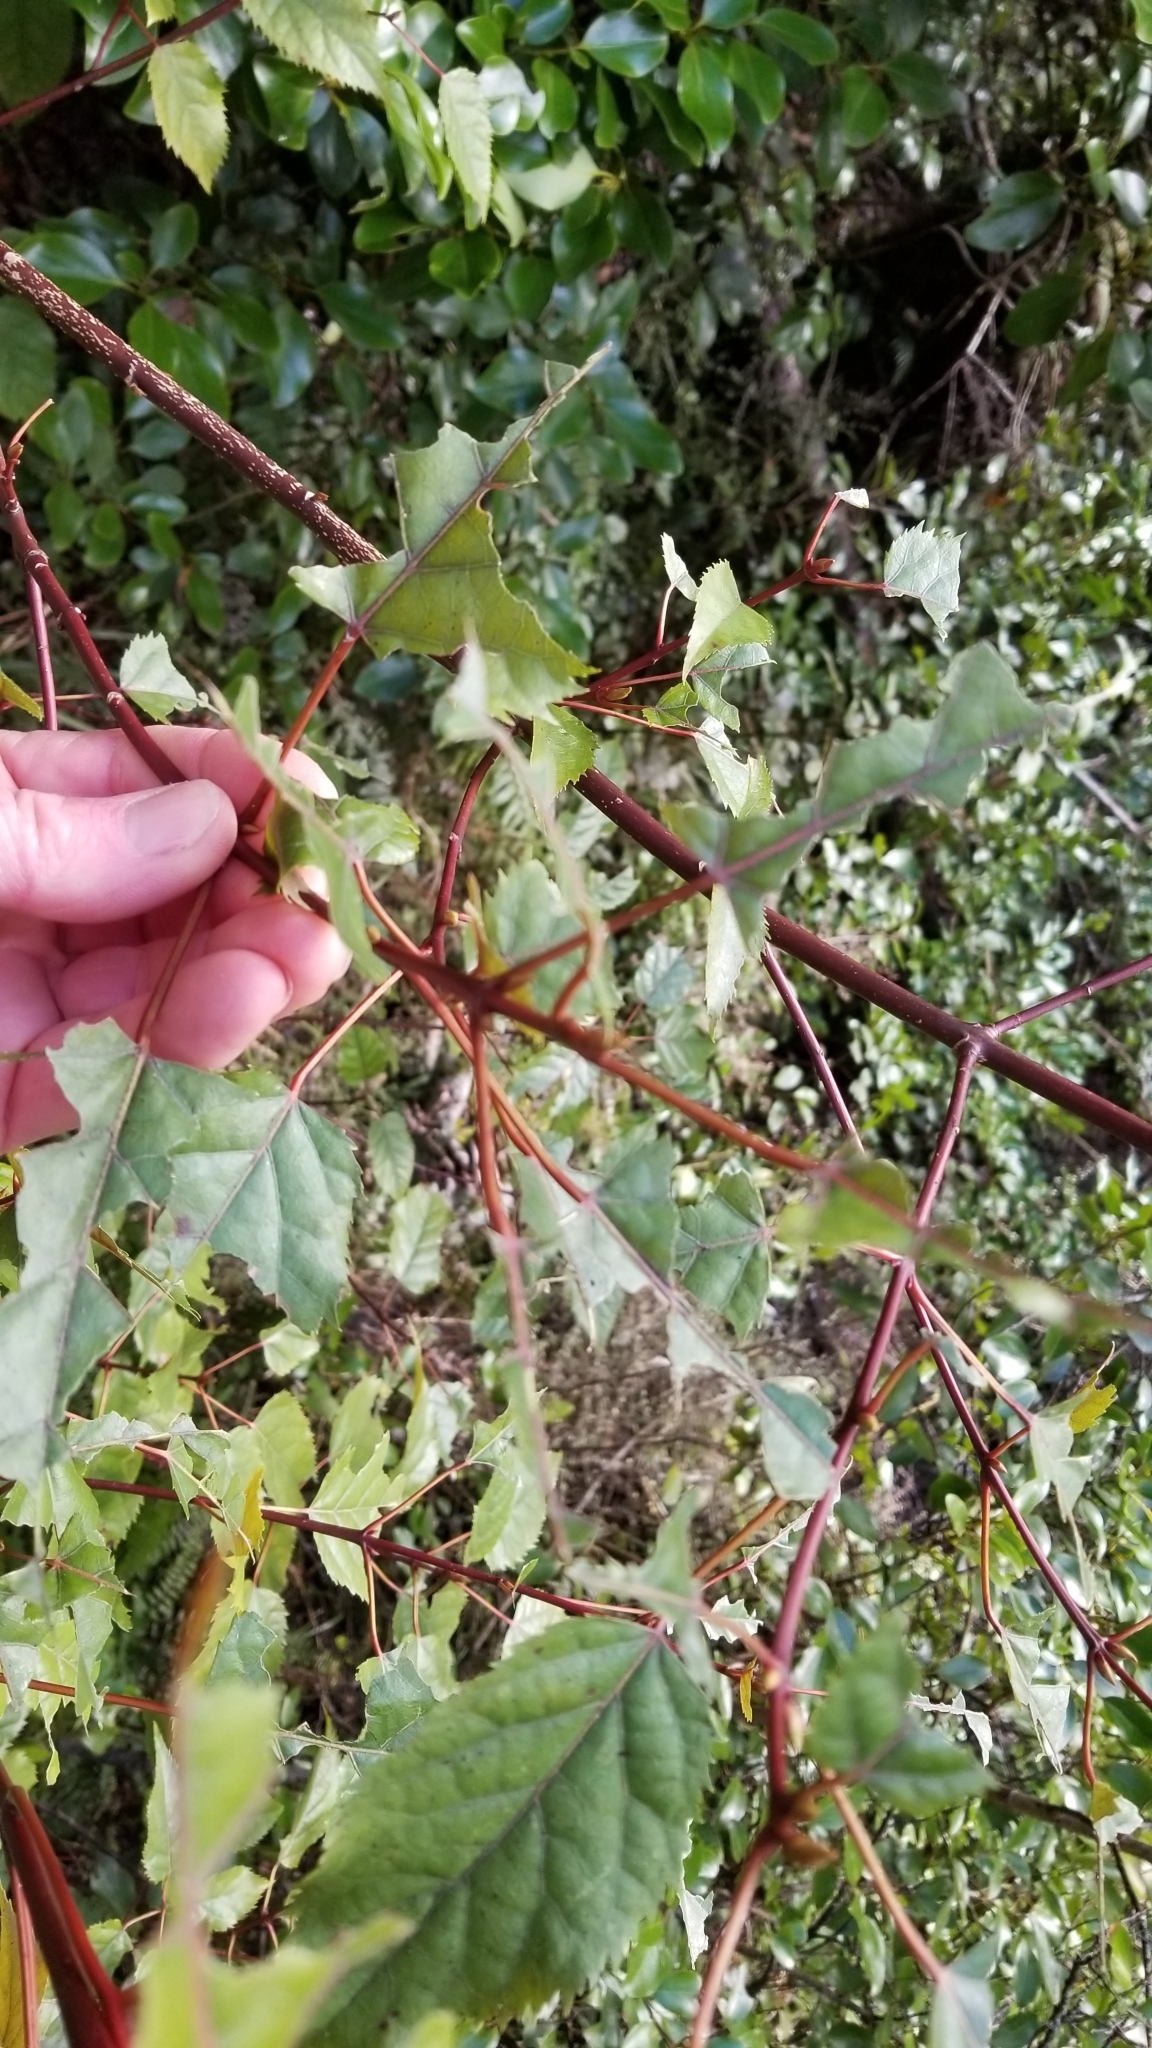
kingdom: Plantae
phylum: Tracheophyta
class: Magnoliopsida
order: Oxalidales
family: Elaeocarpaceae
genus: Aristotelia
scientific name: Aristotelia serrata
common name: New zealand wineberry
